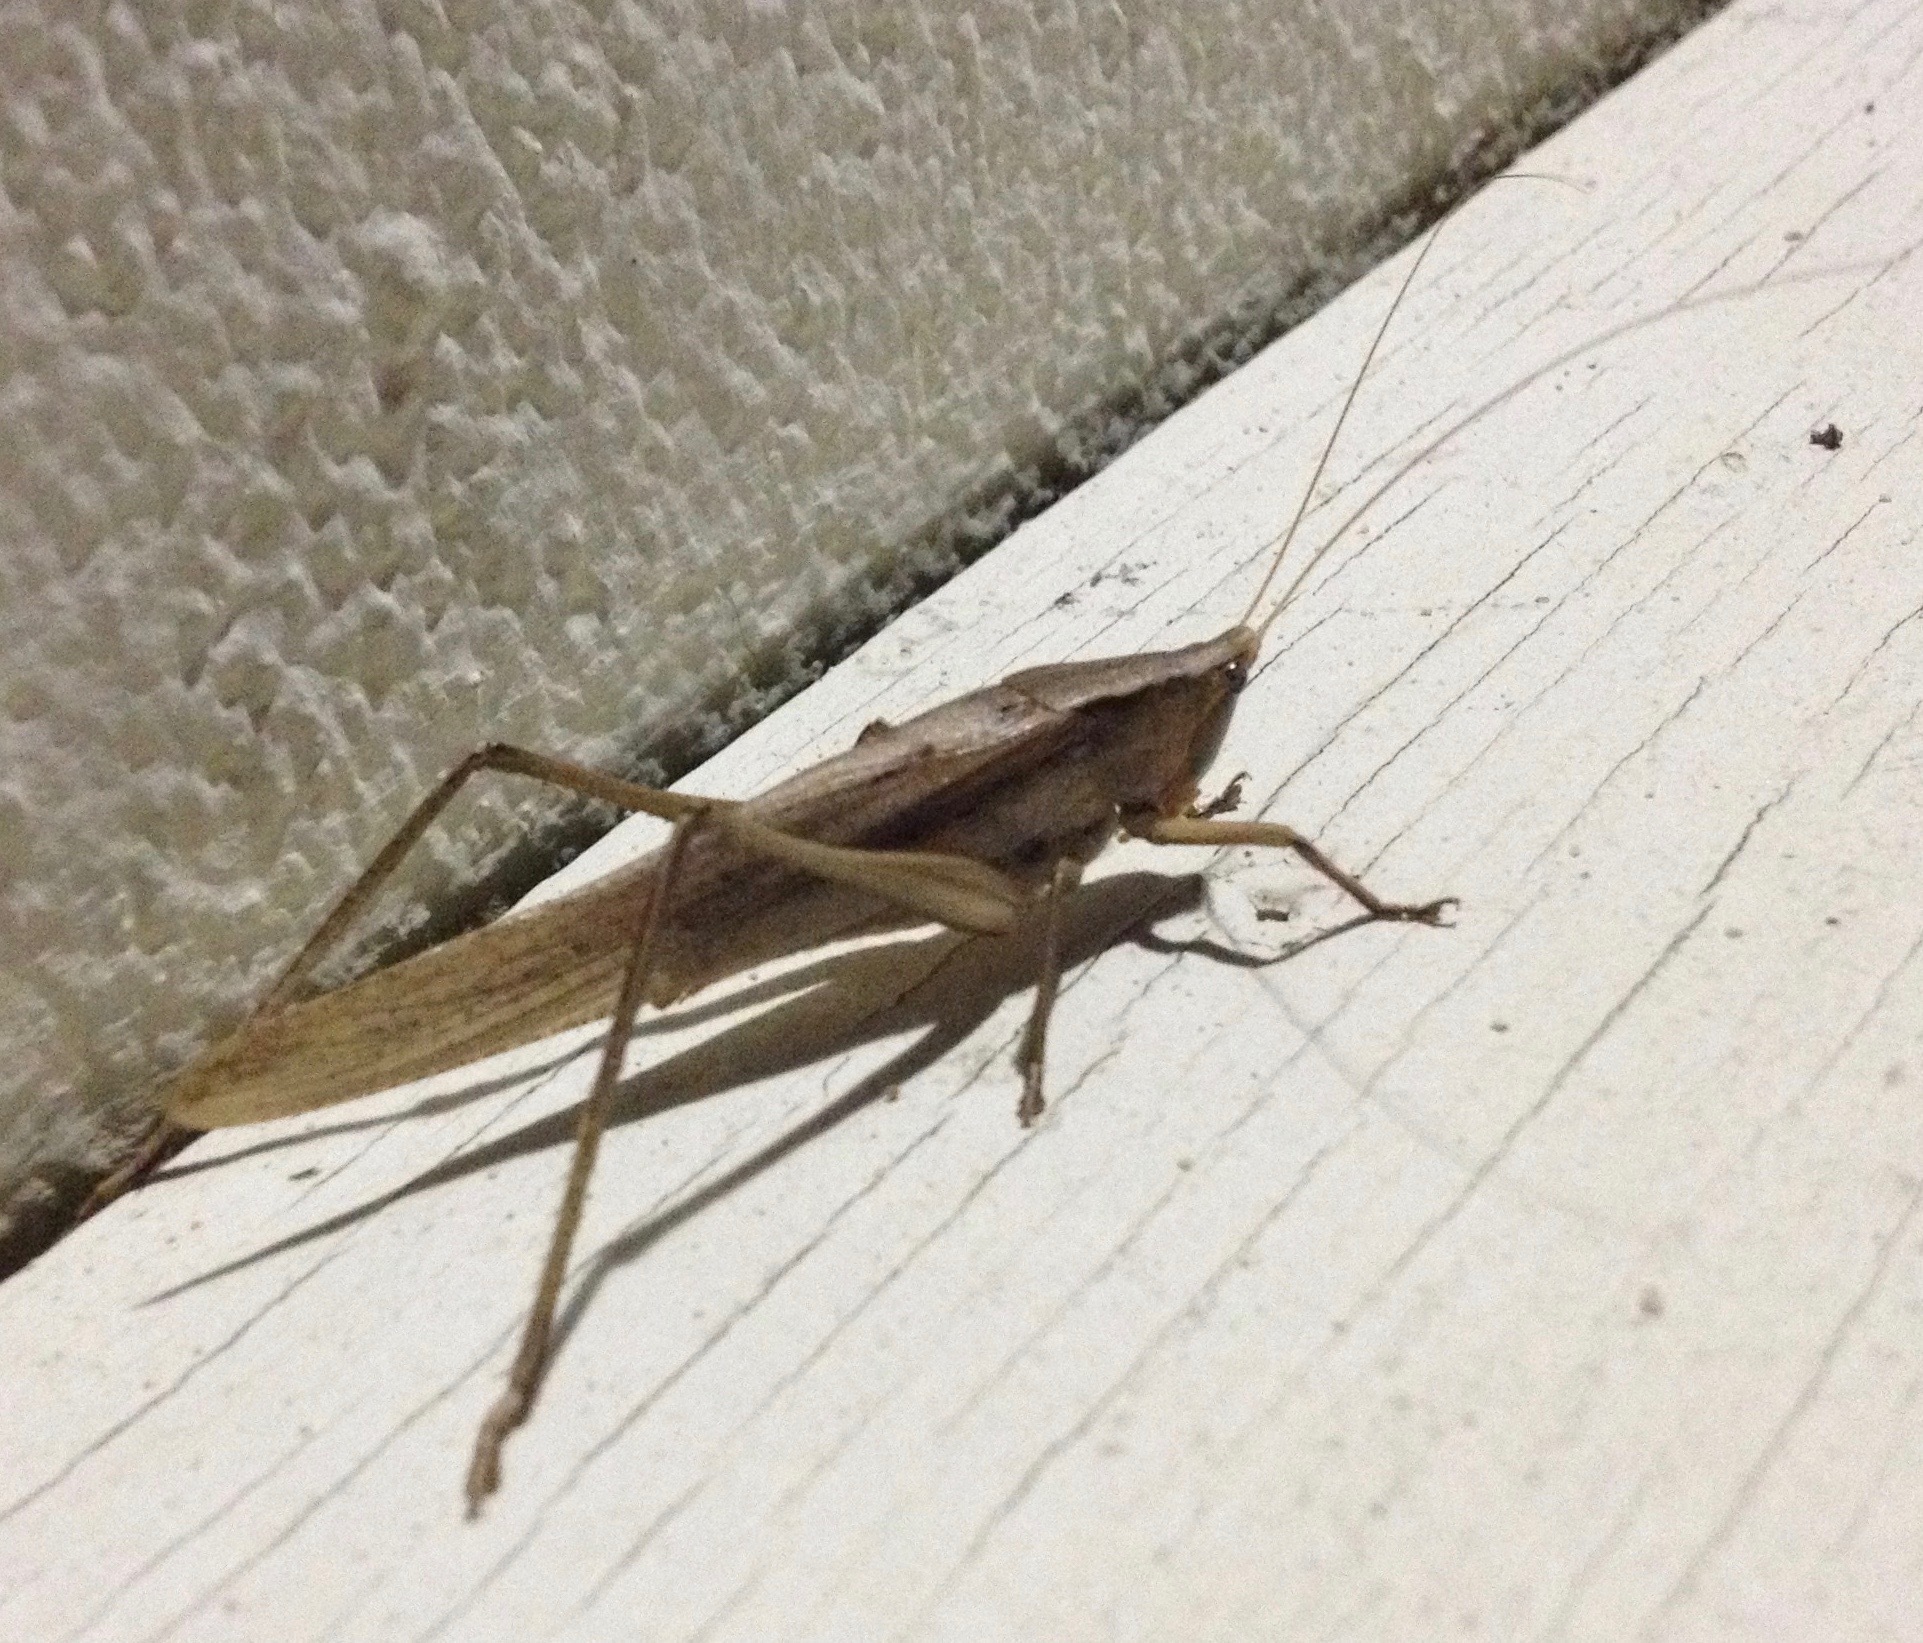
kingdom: Animalia
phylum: Arthropoda
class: Insecta
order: Orthoptera
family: Tettigoniidae
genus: Neoconocephalus
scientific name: Neoconocephalus triops
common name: Broad-tipped conehead
